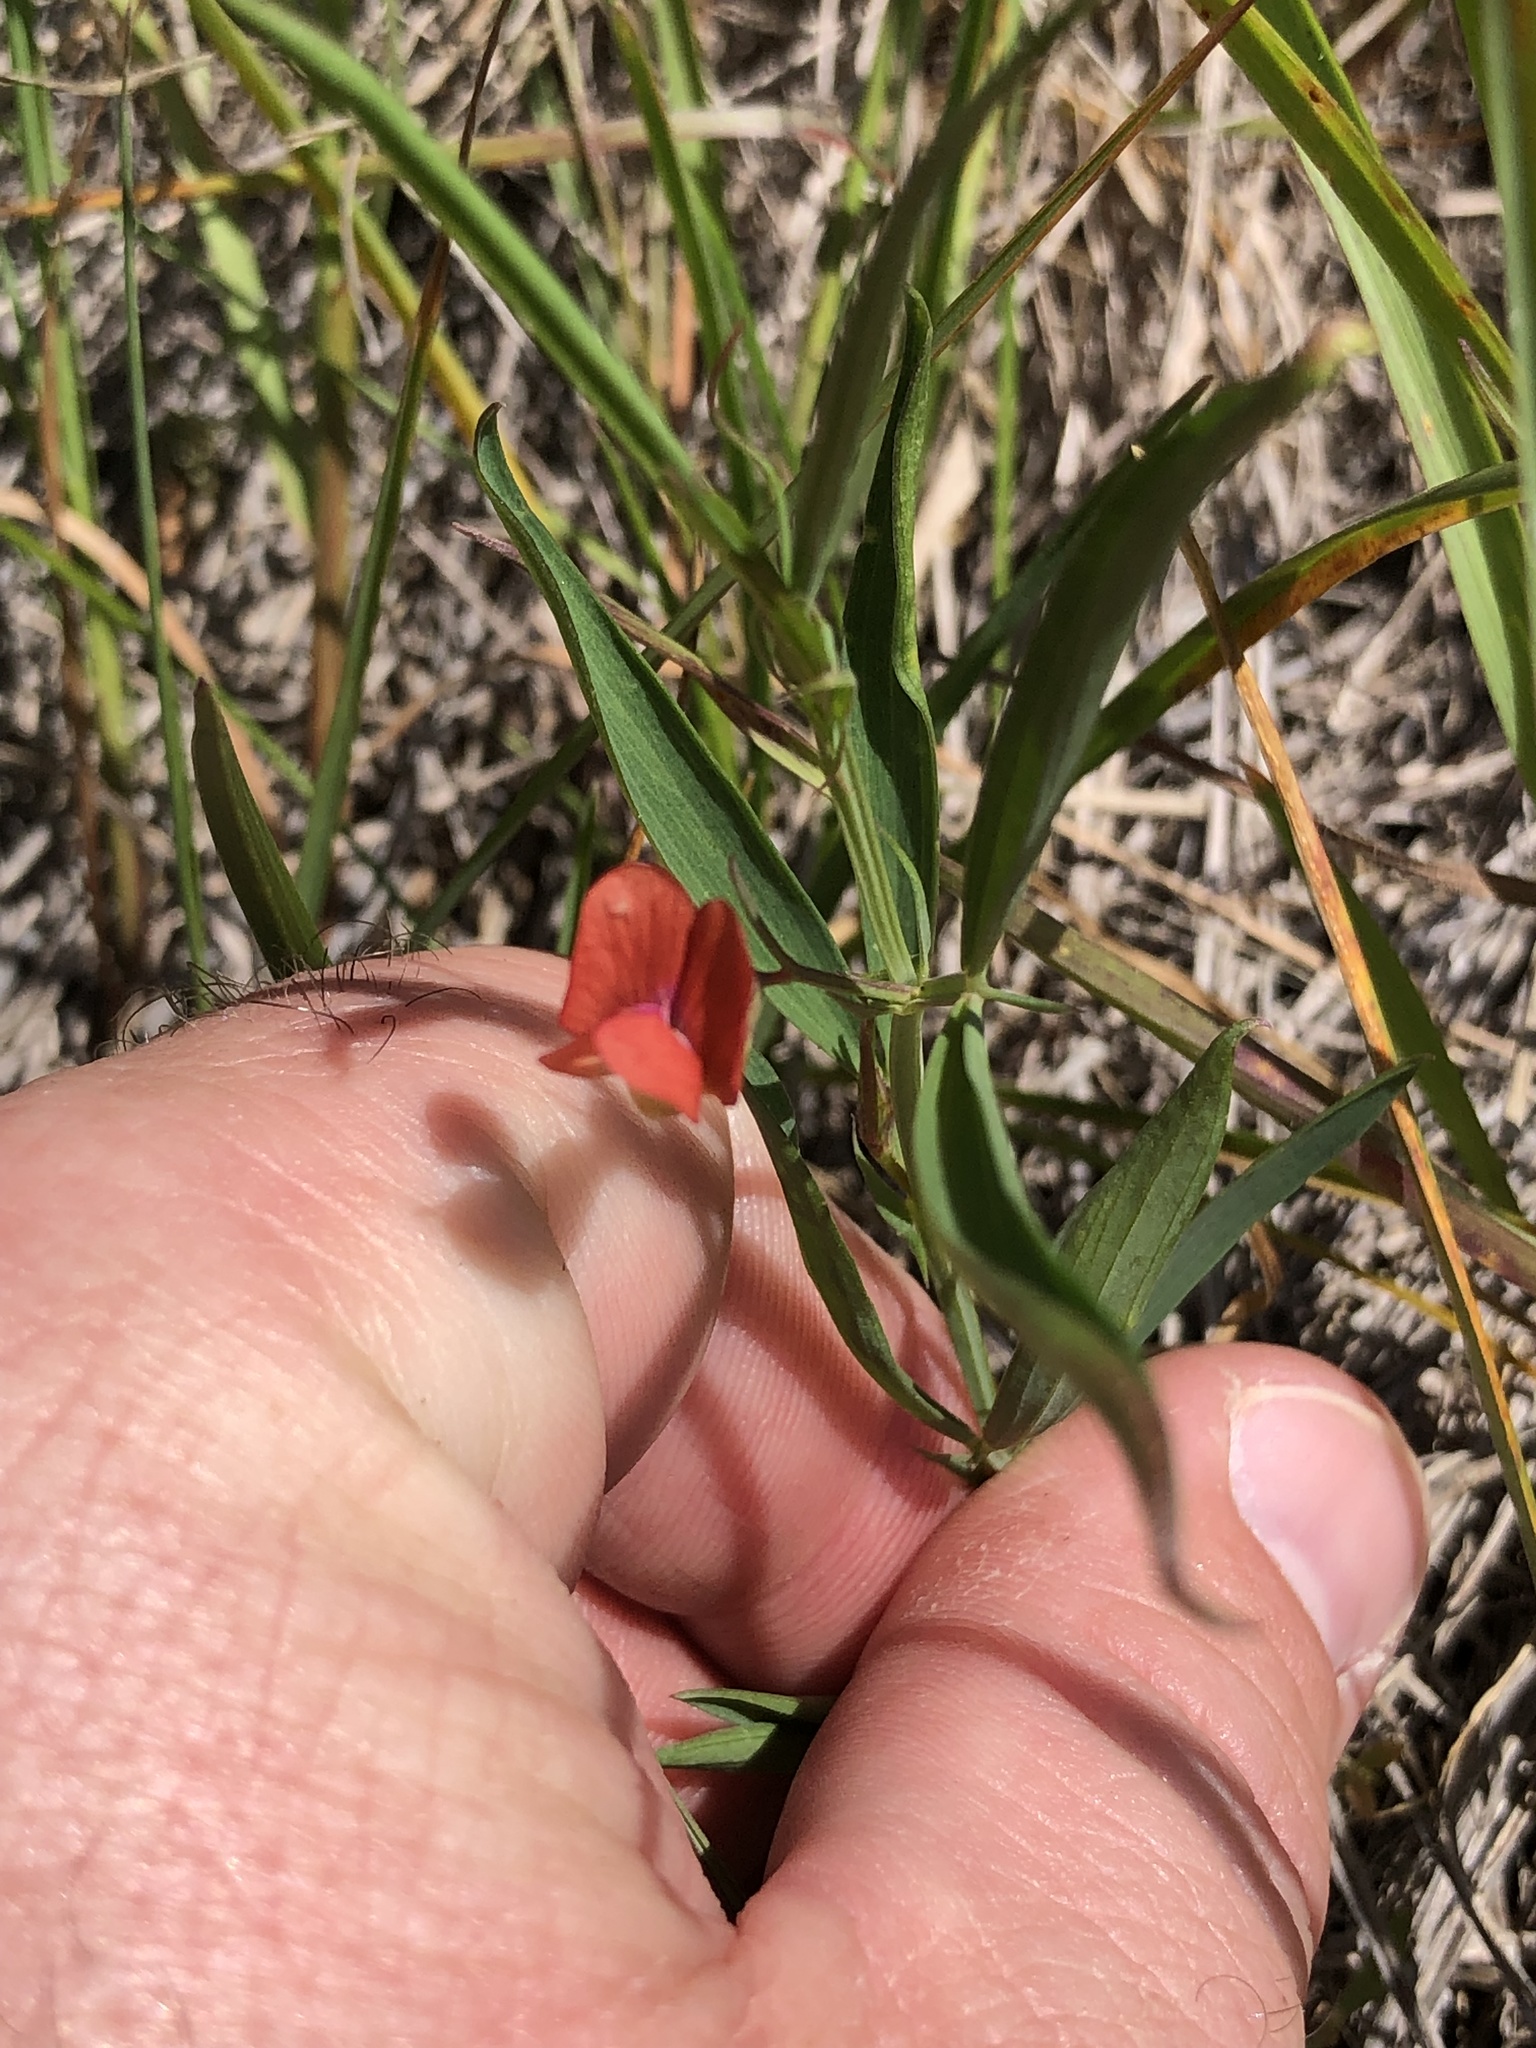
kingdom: Plantae
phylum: Tracheophyta
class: Magnoliopsida
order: Fabales
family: Fabaceae
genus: Lathyrus
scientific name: Lathyrus sphaericus
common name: Grass pea
